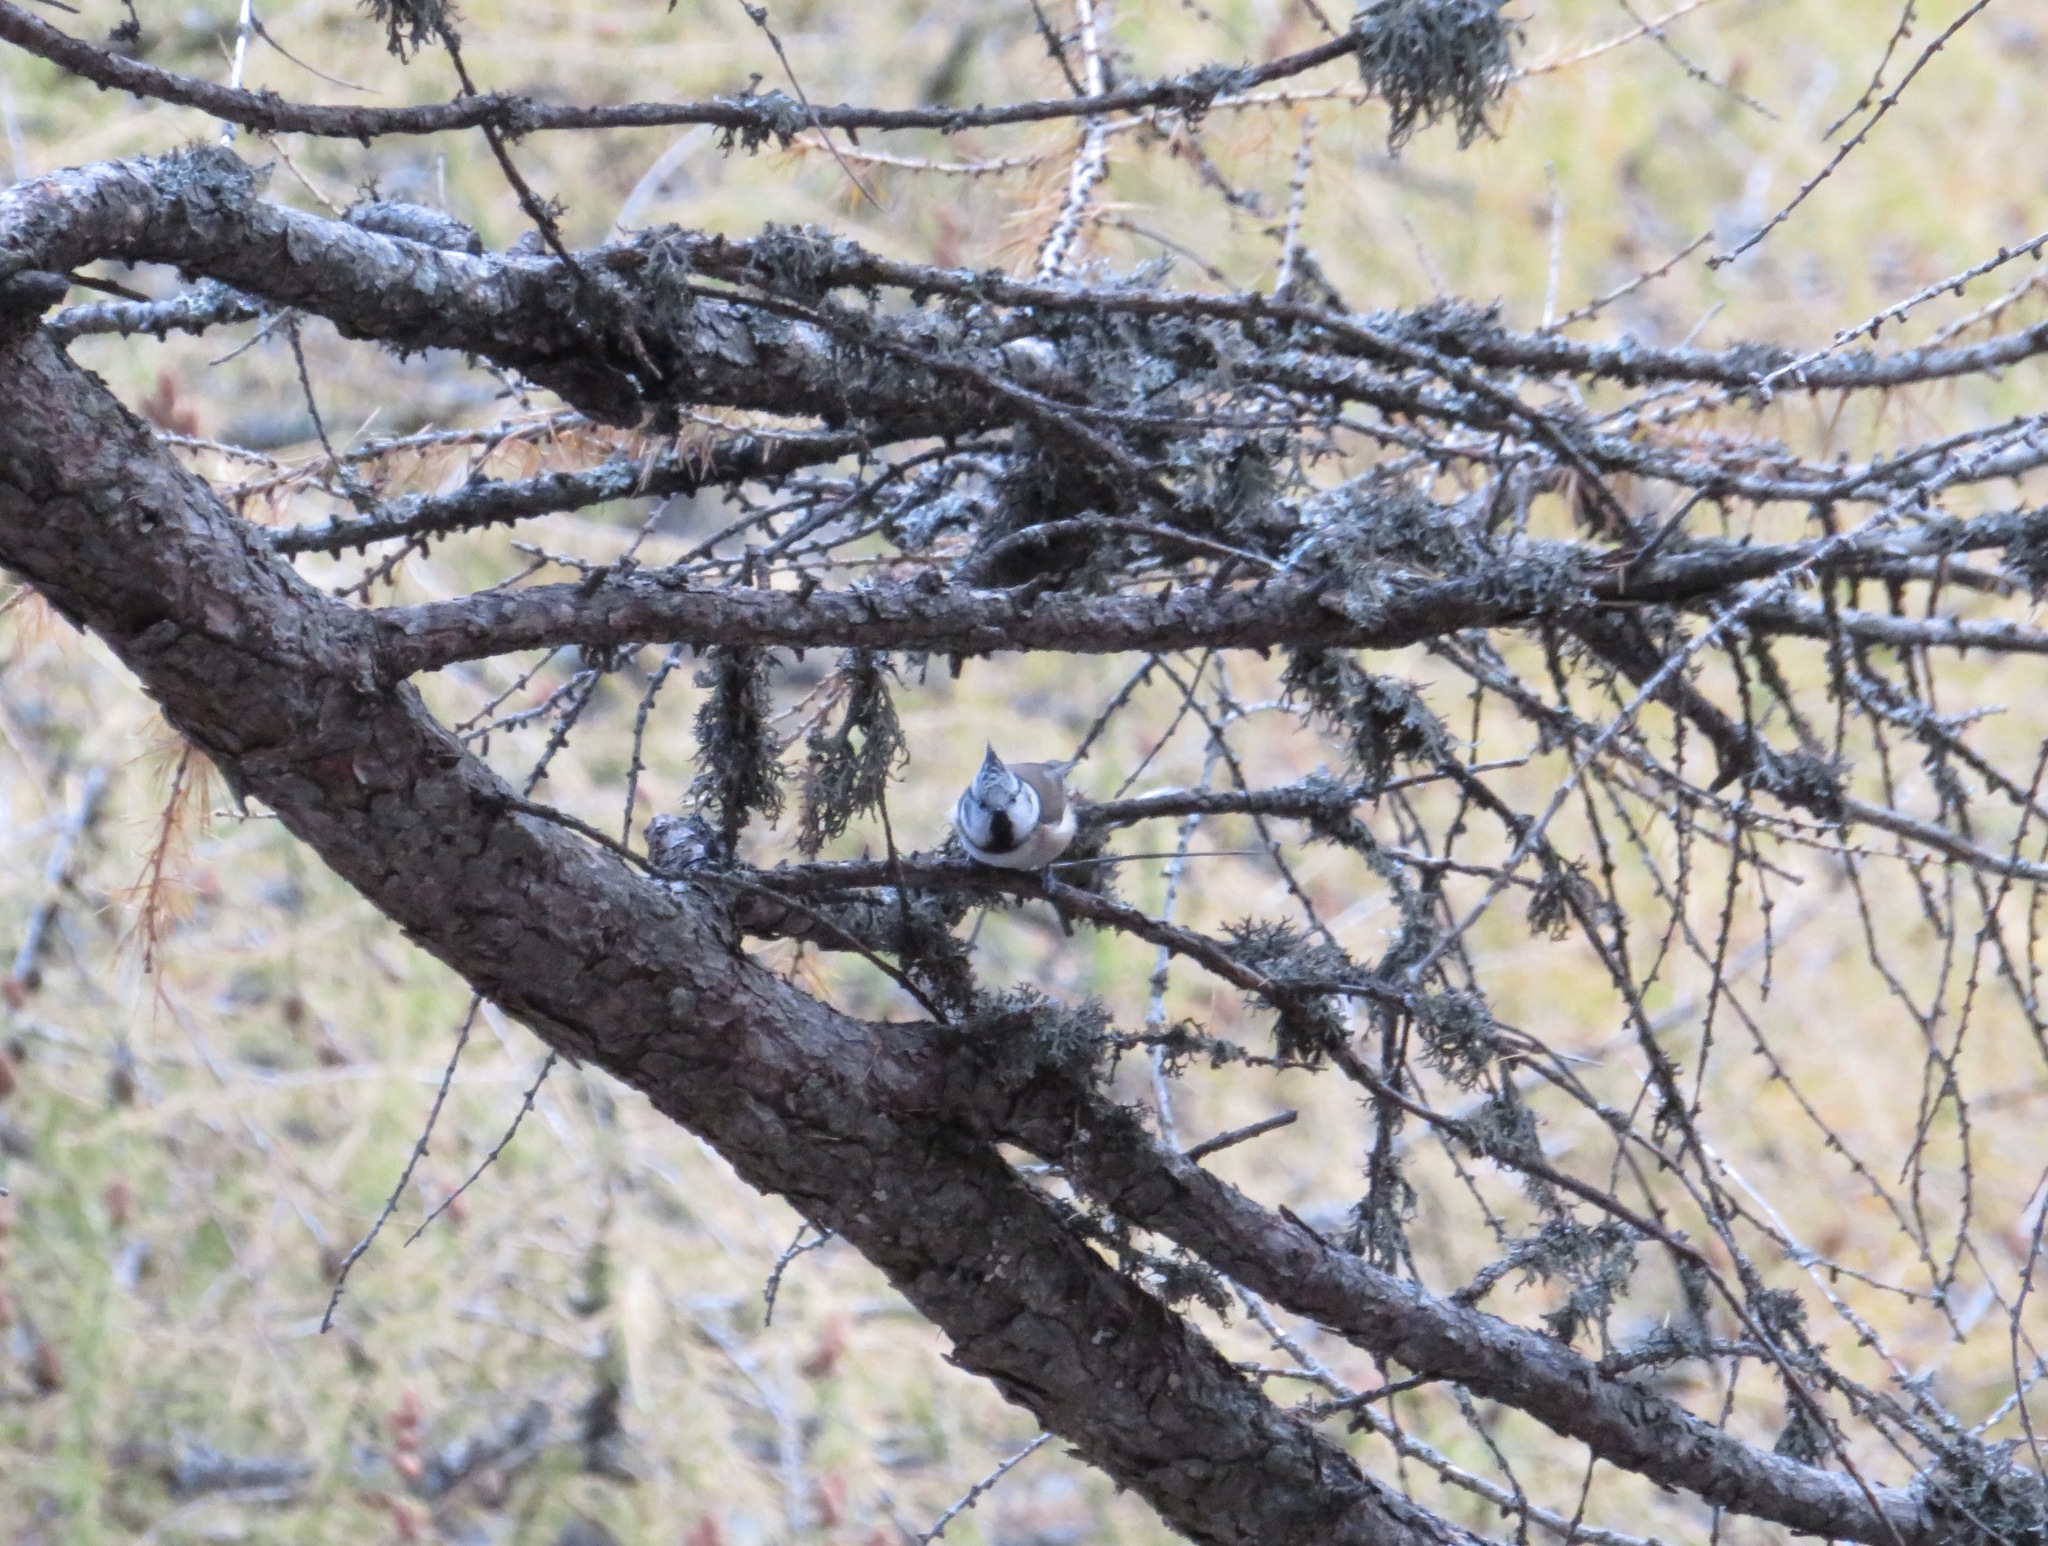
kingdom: Animalia
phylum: Chordata
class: Aves
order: Passeriformes
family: Paridae
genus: Lophophanes
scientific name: Lophophanes cristatus
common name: European crested tit
